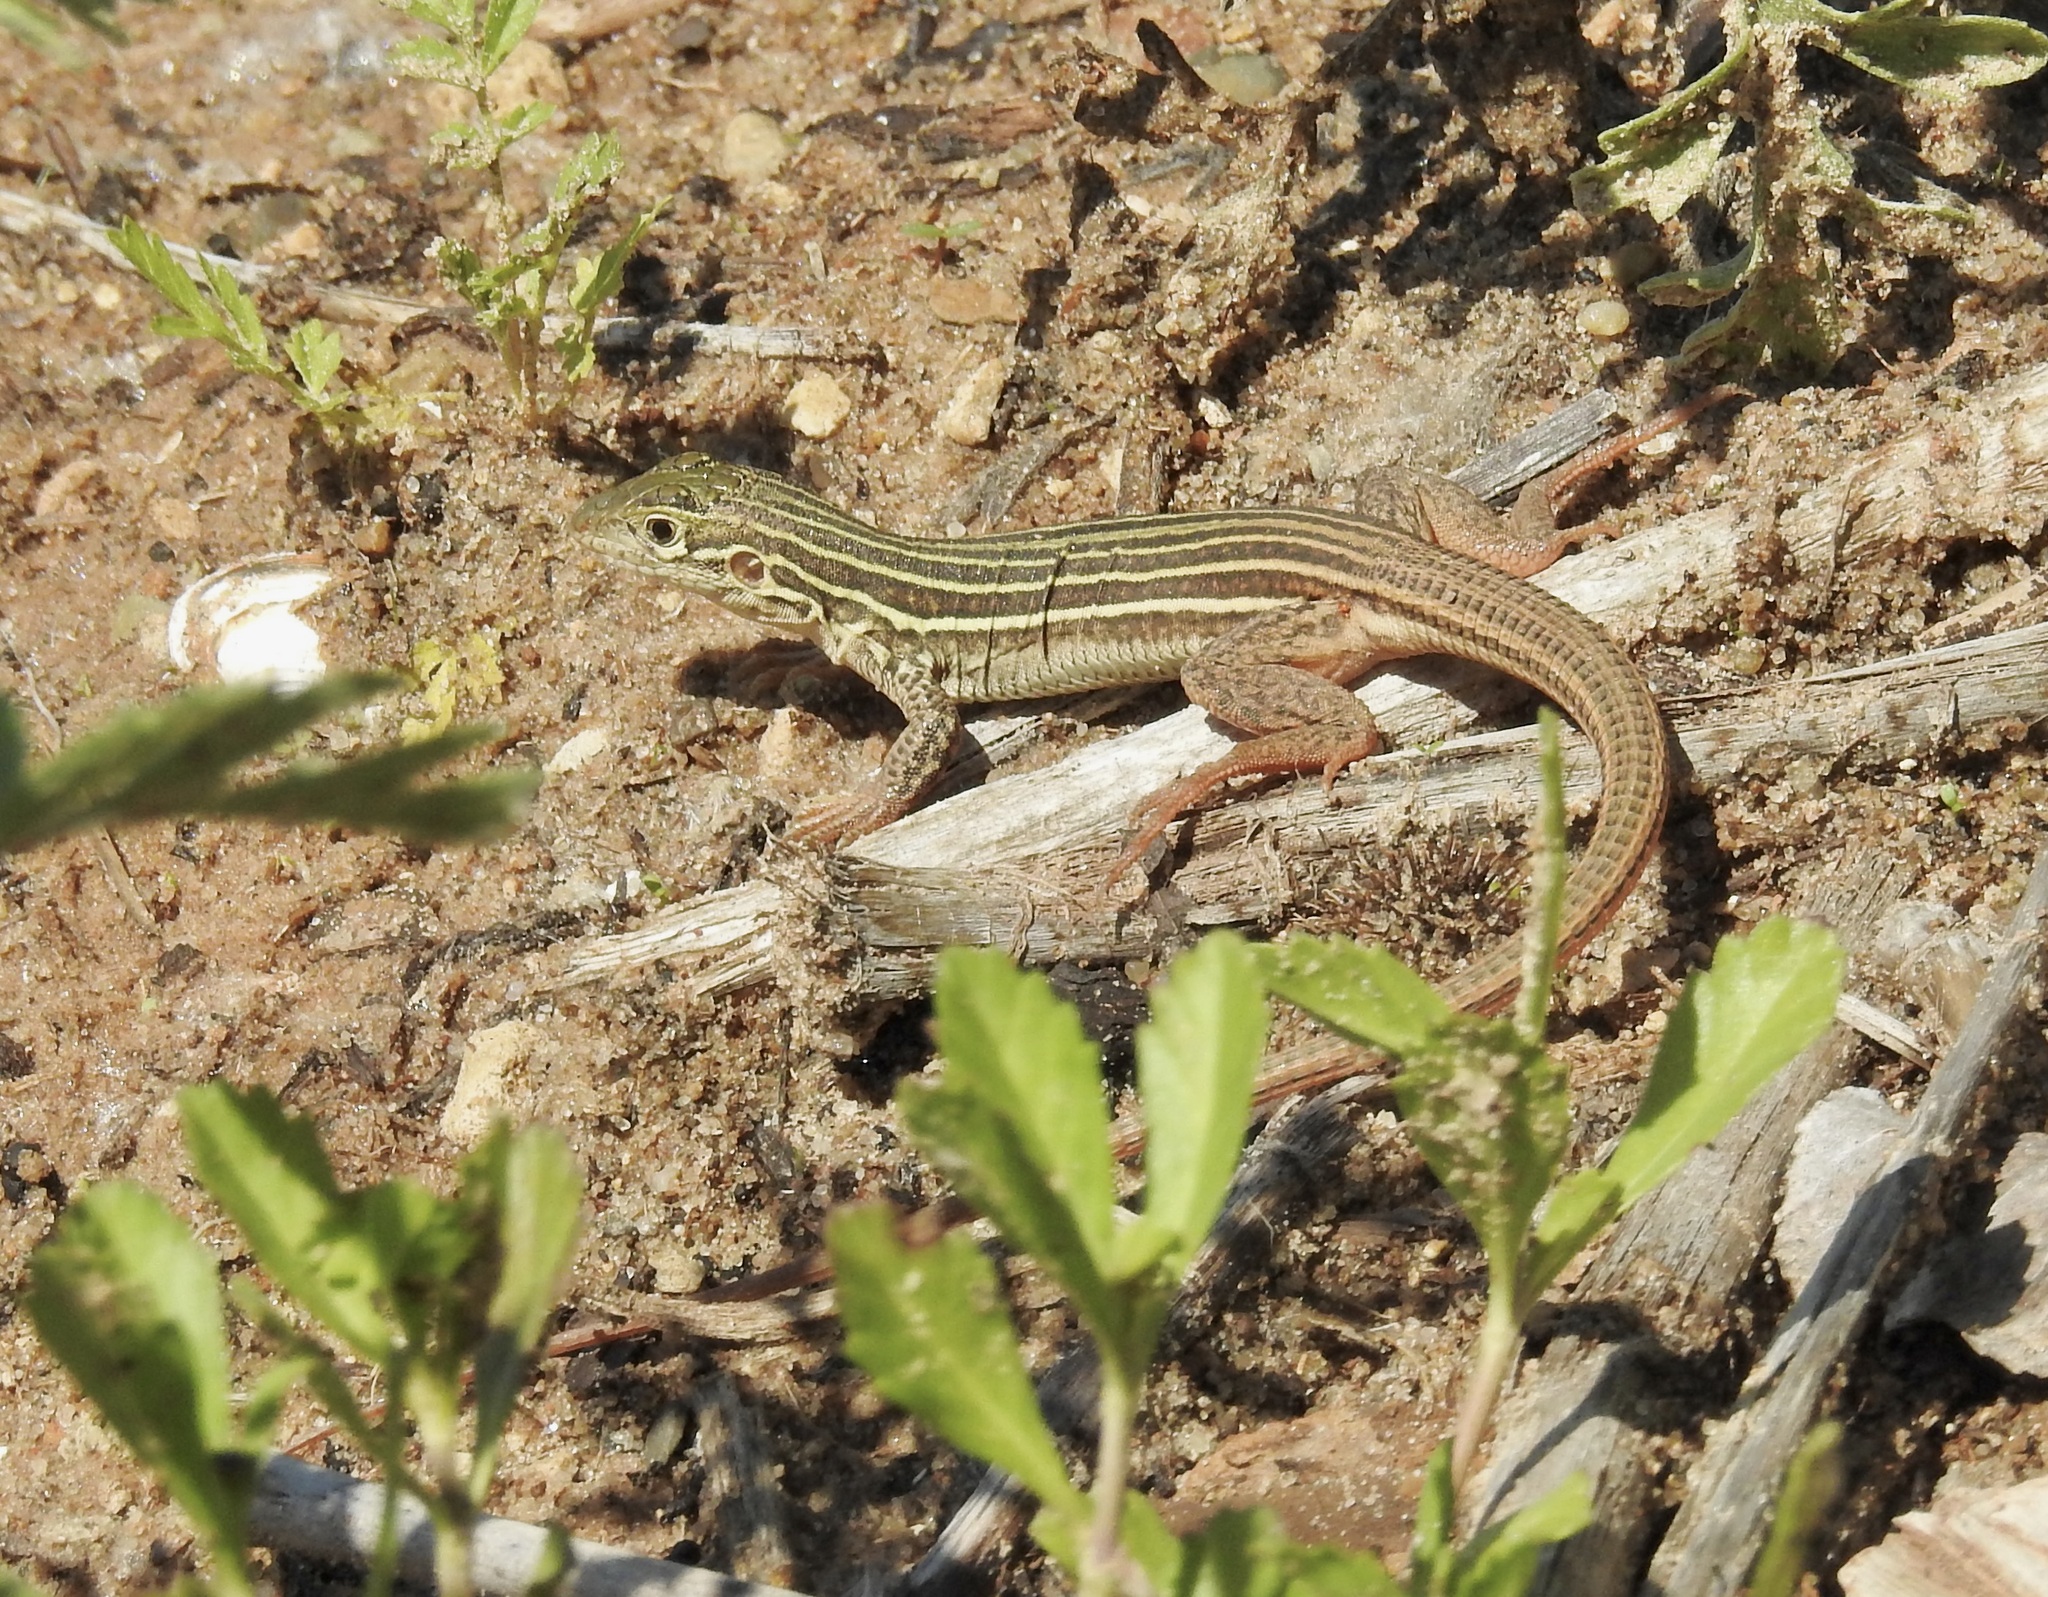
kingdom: Animalia
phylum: Chordata
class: Squamata
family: Teiidae
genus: Aspidoscelis
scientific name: Aspidoscelis gularis
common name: Eastern spotted whiptail
